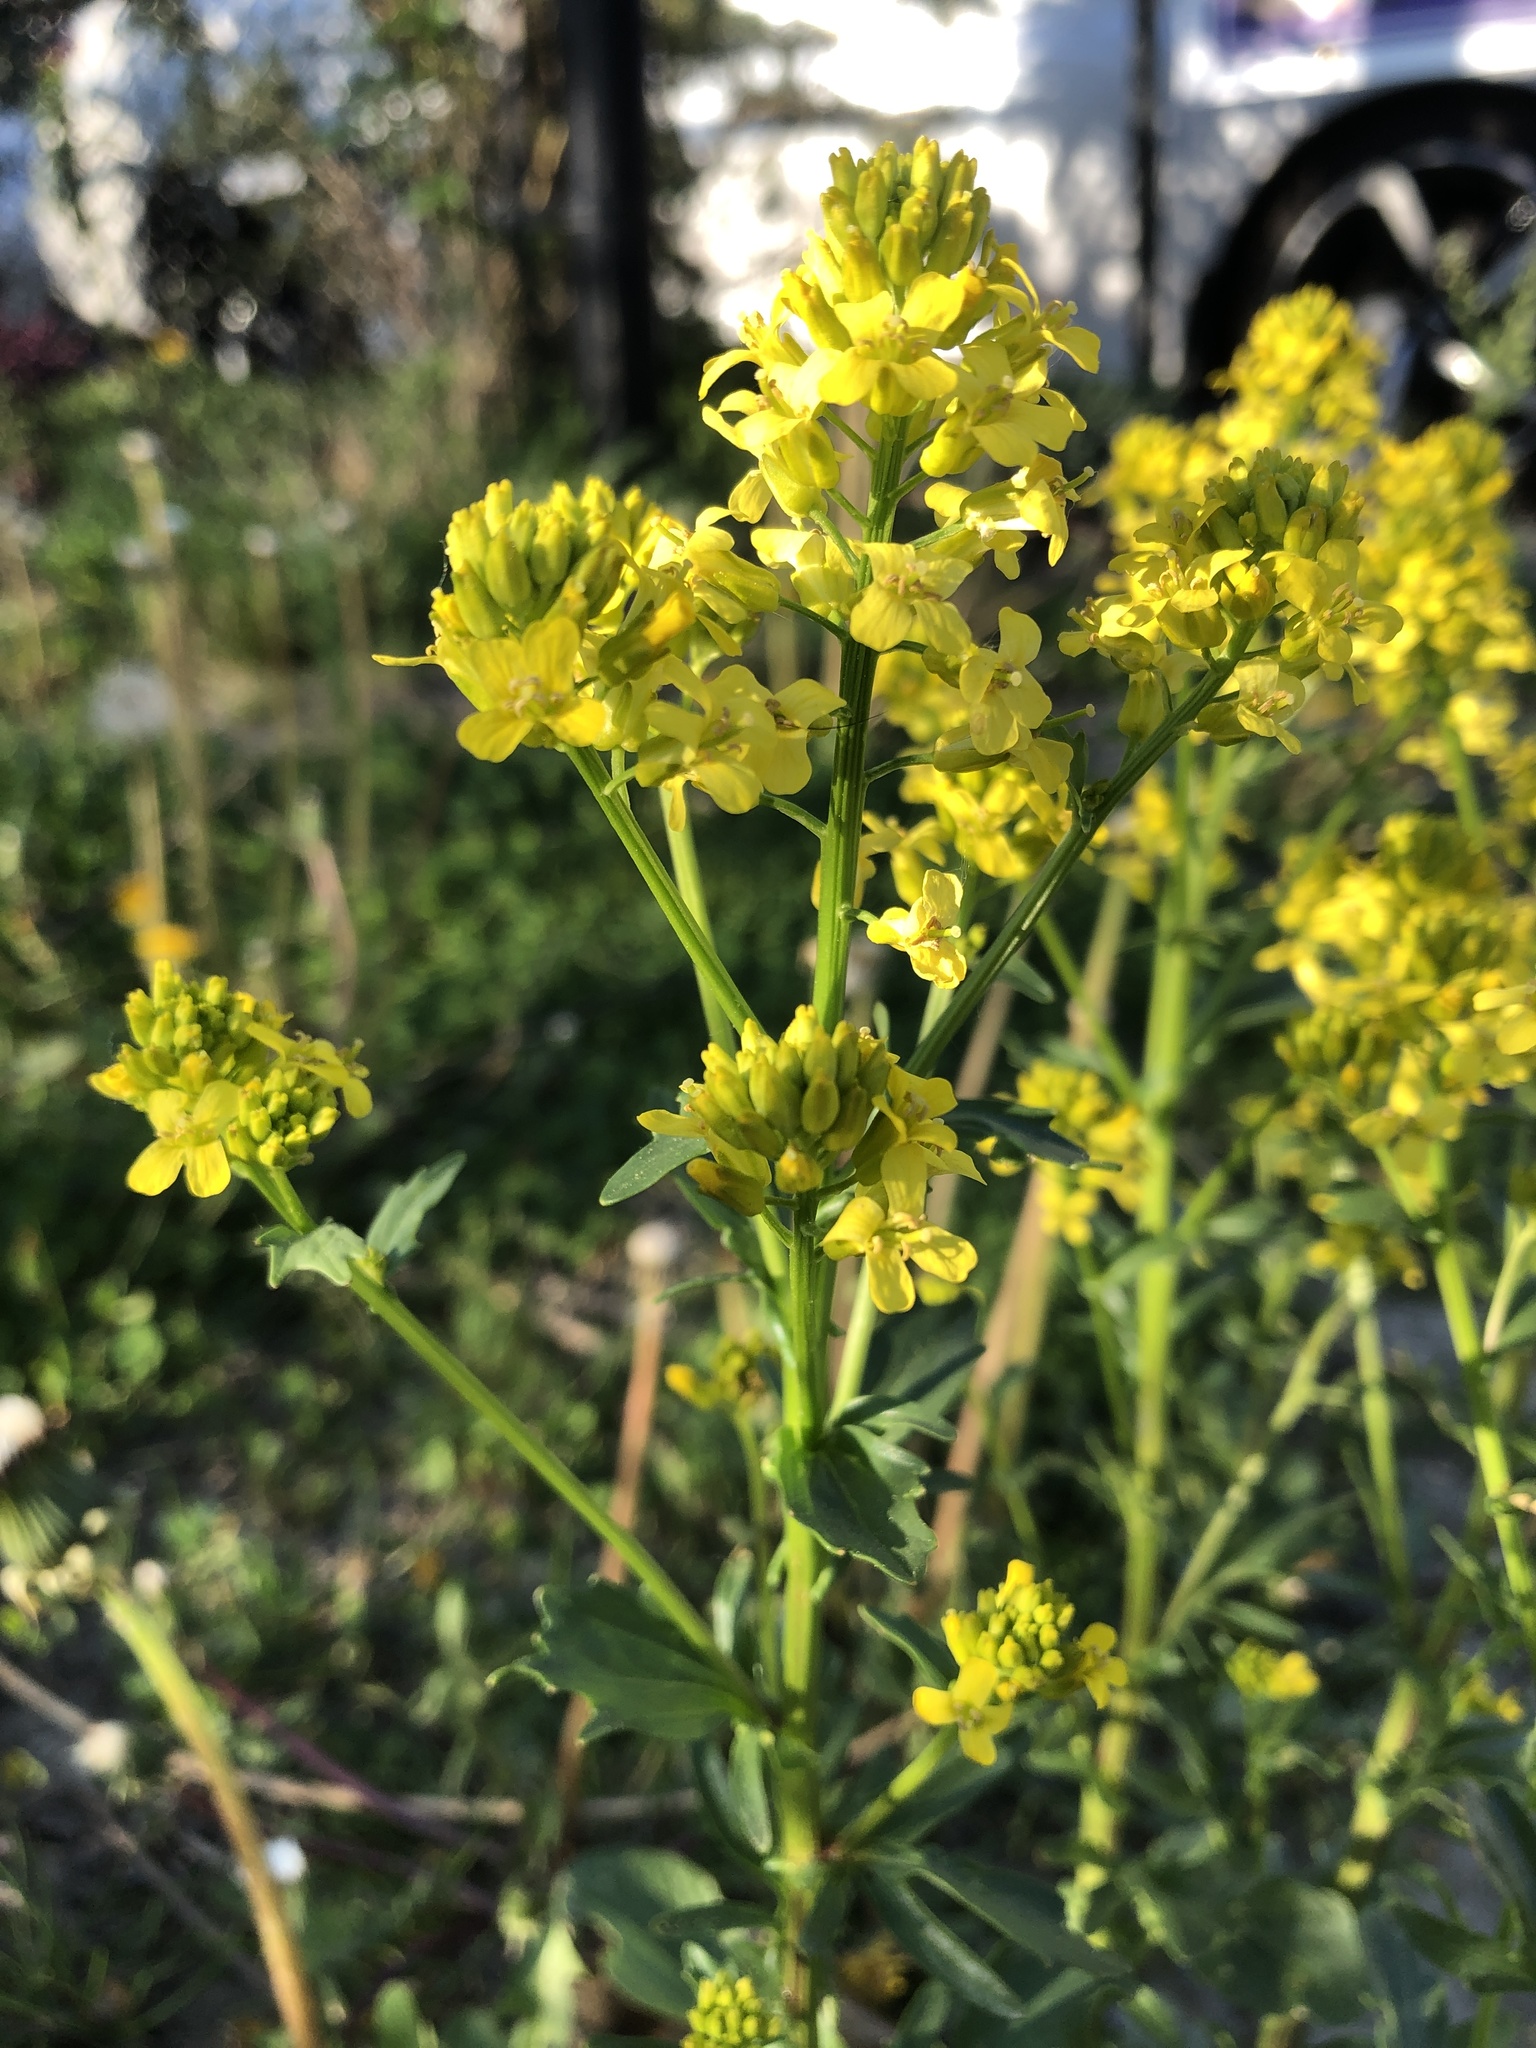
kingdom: Plantae
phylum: Tracheophyta
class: Magnoliopsida
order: Brassicales
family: Brassicaceae
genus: Barbarea
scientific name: Barbarea vulgaris
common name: Cressy-greens
